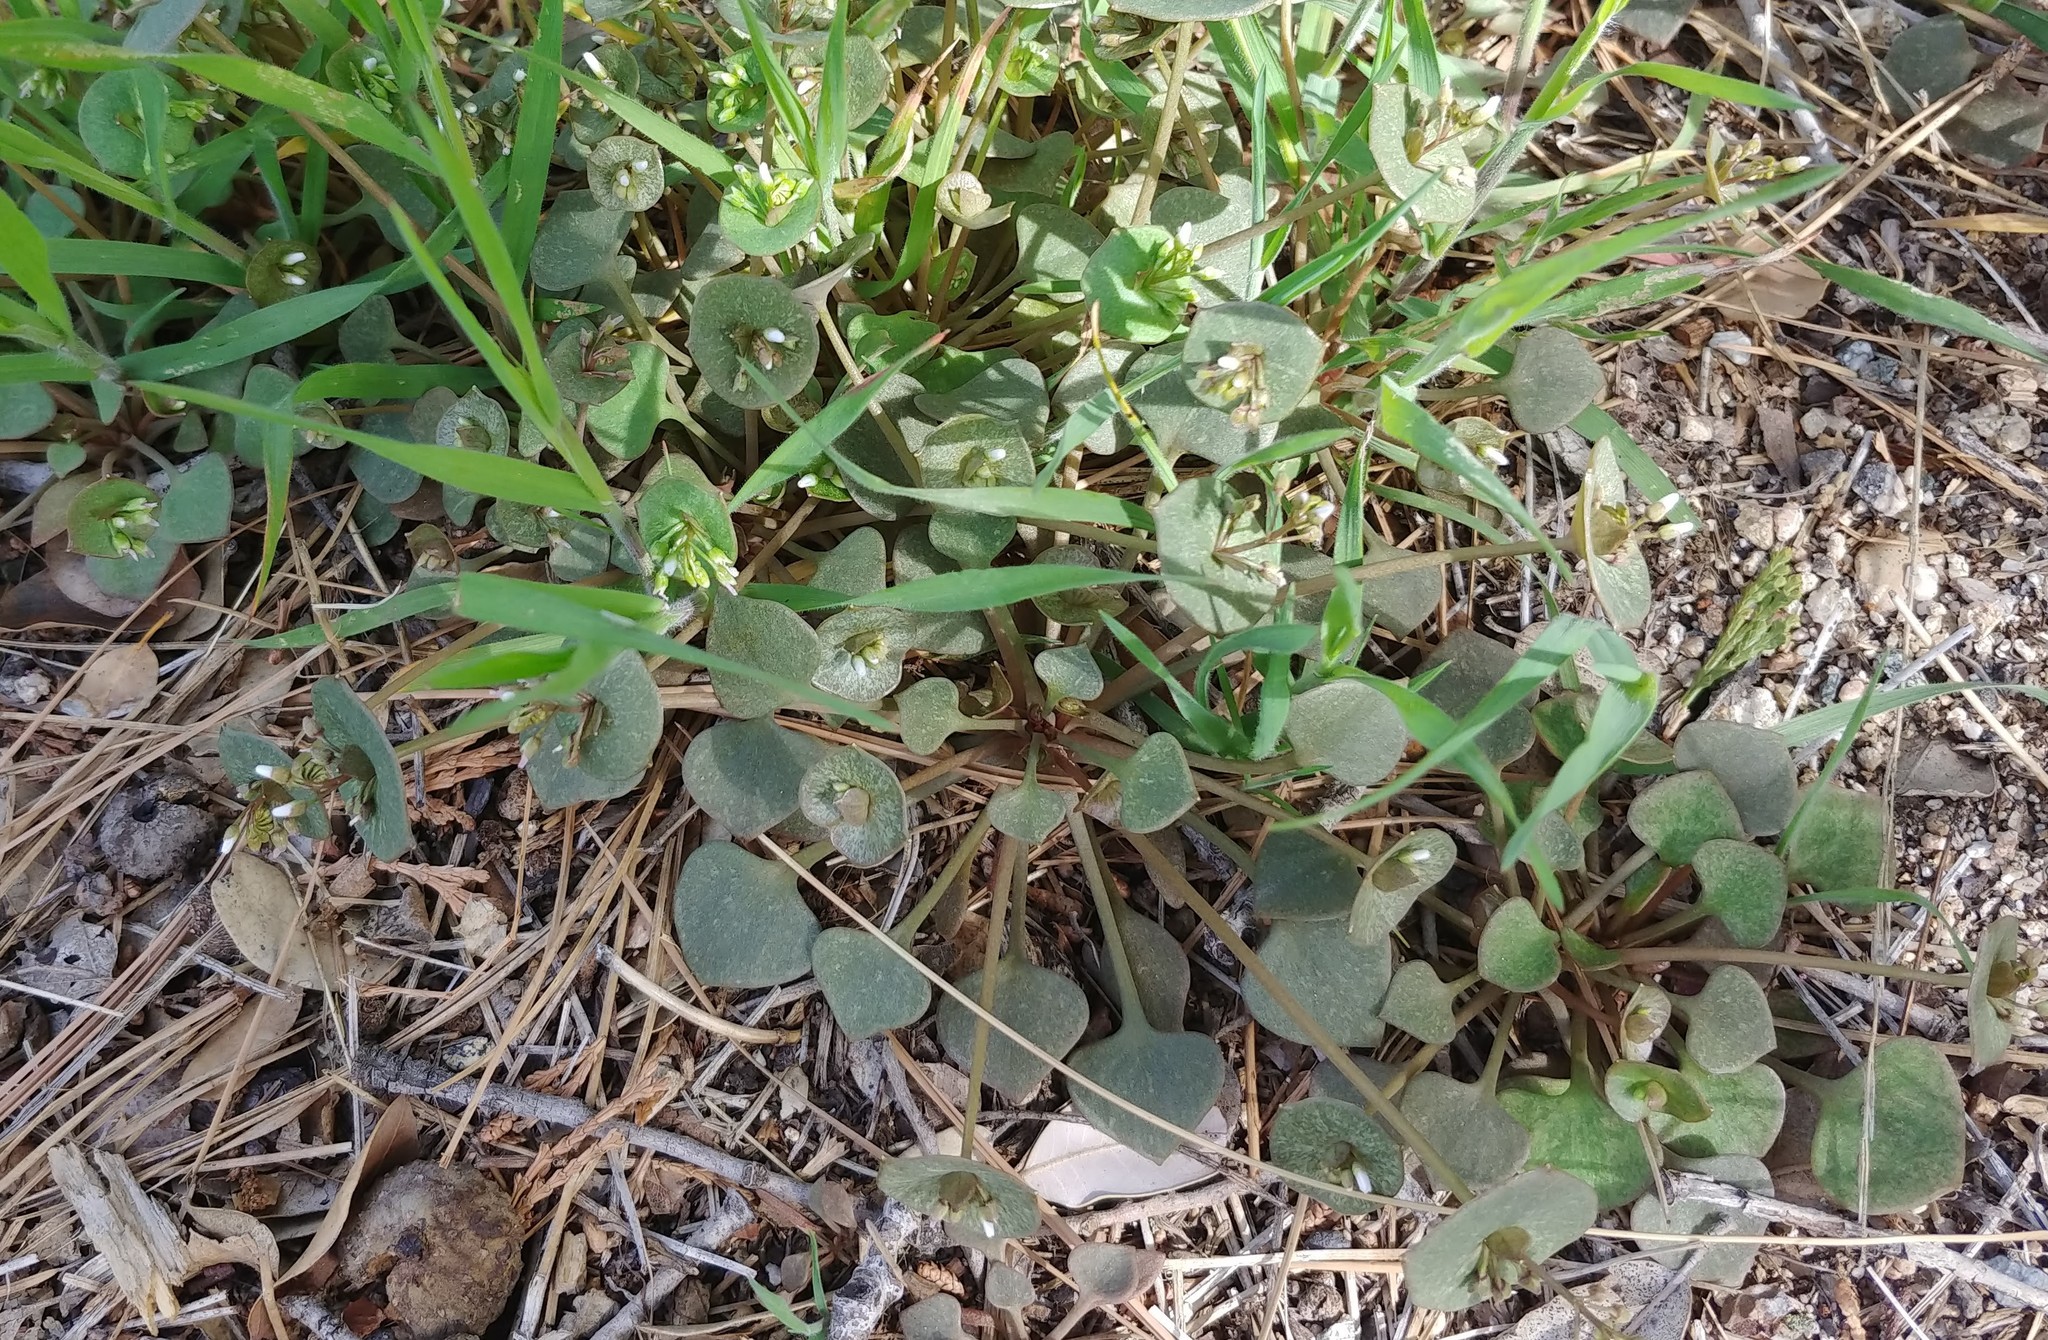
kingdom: Plantae
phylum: Tracheophyta
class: Magnoliopsida
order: Caryophyllales
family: Montiaceae
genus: Claytonia
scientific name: Claytonia perfoliata
